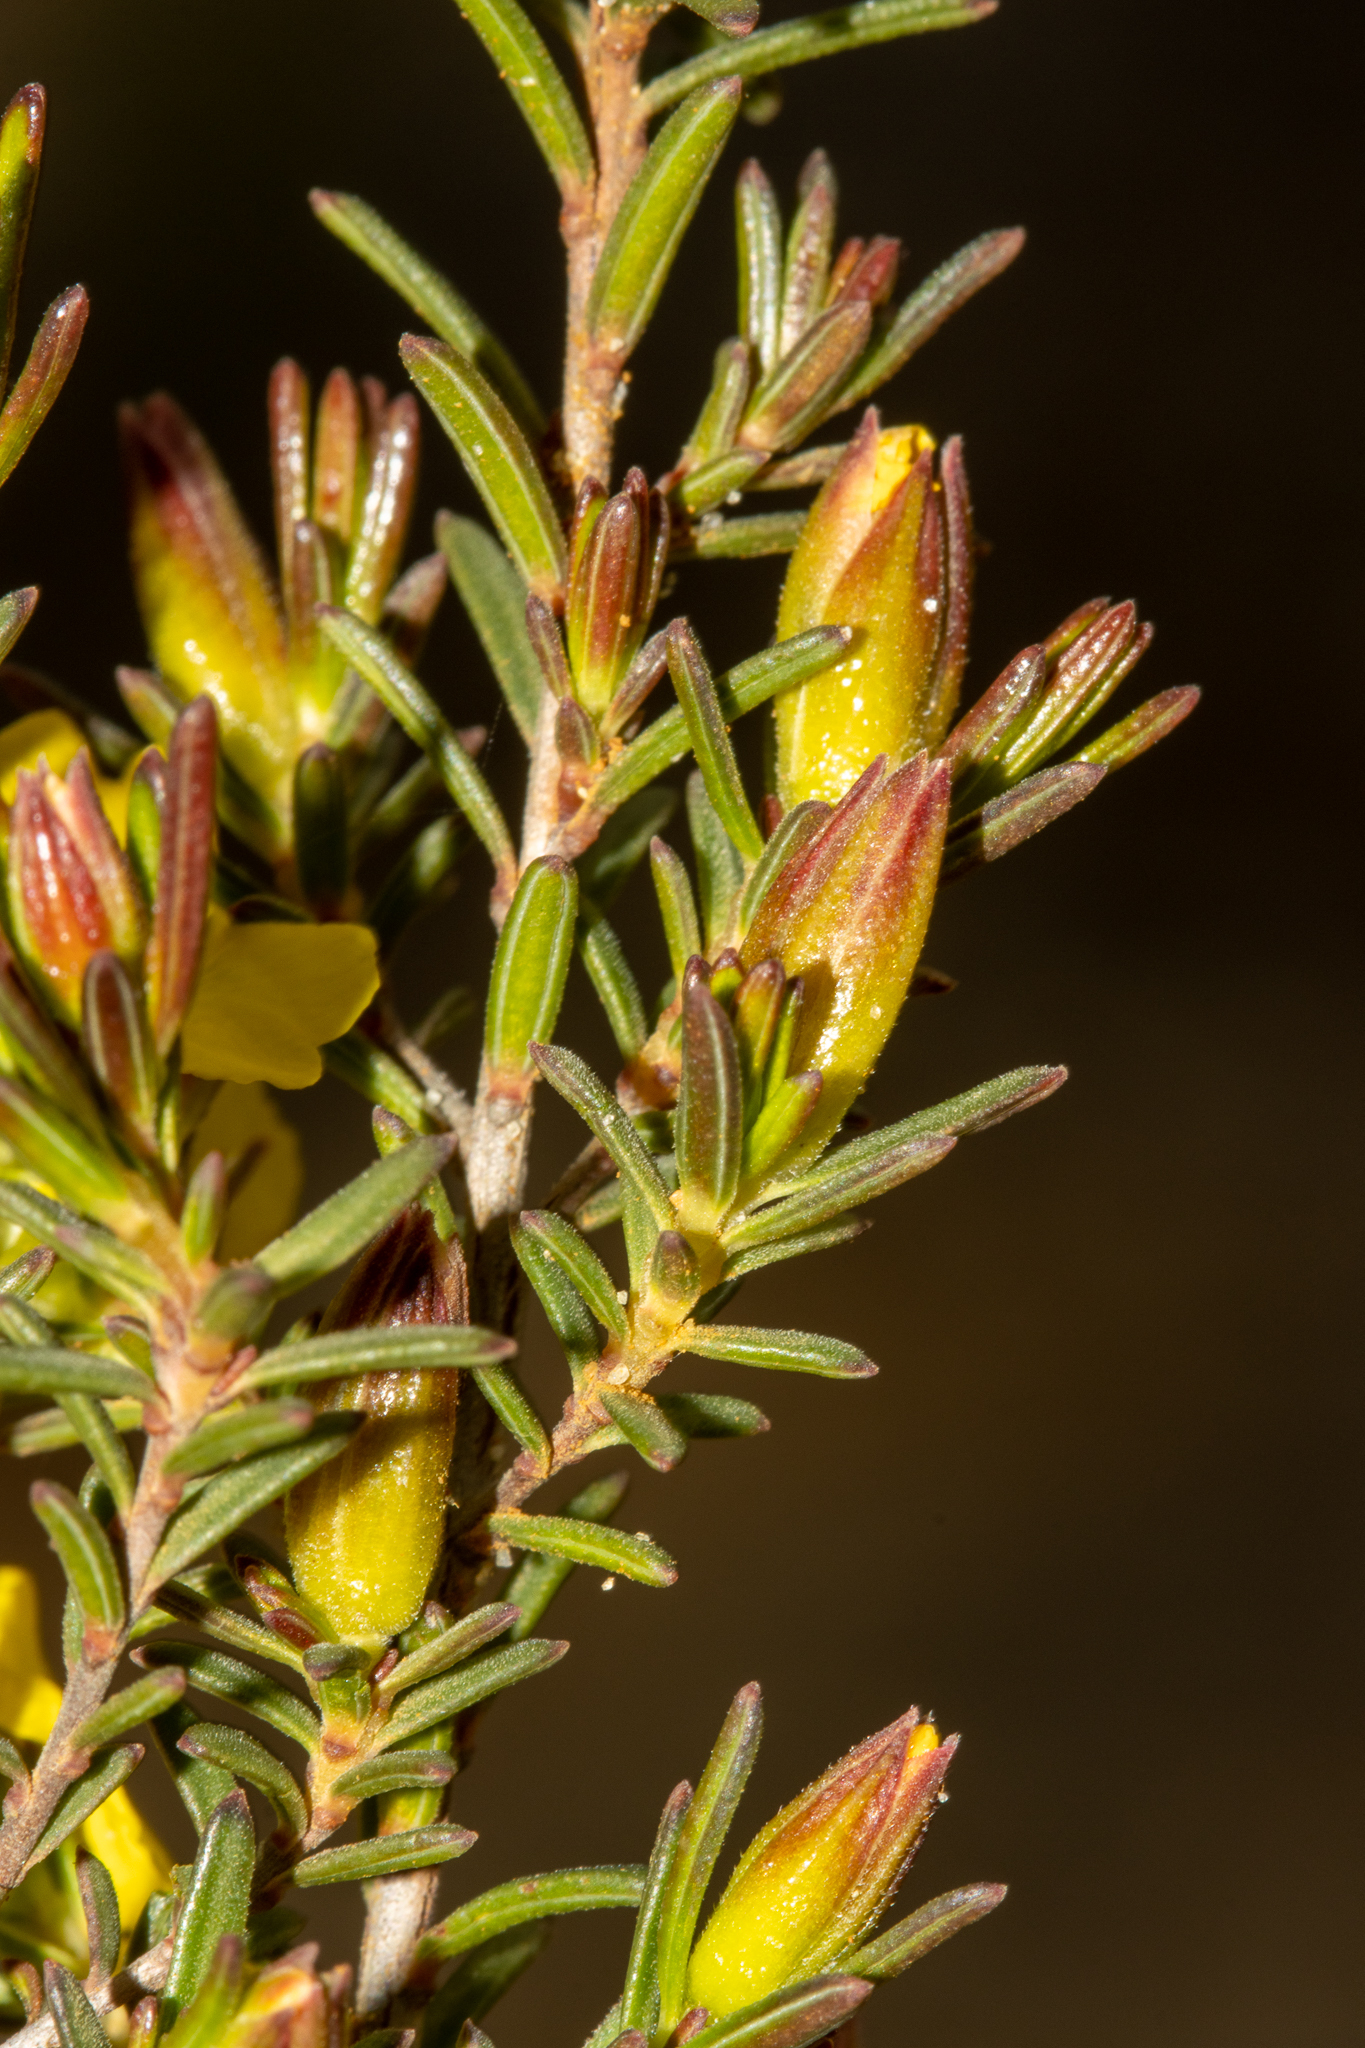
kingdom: Plantae
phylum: Tracheophyta
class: Magnoliopsida
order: Dilleniales
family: Dilleniaceae
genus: Hibbertia
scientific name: Hibbertia devitata
